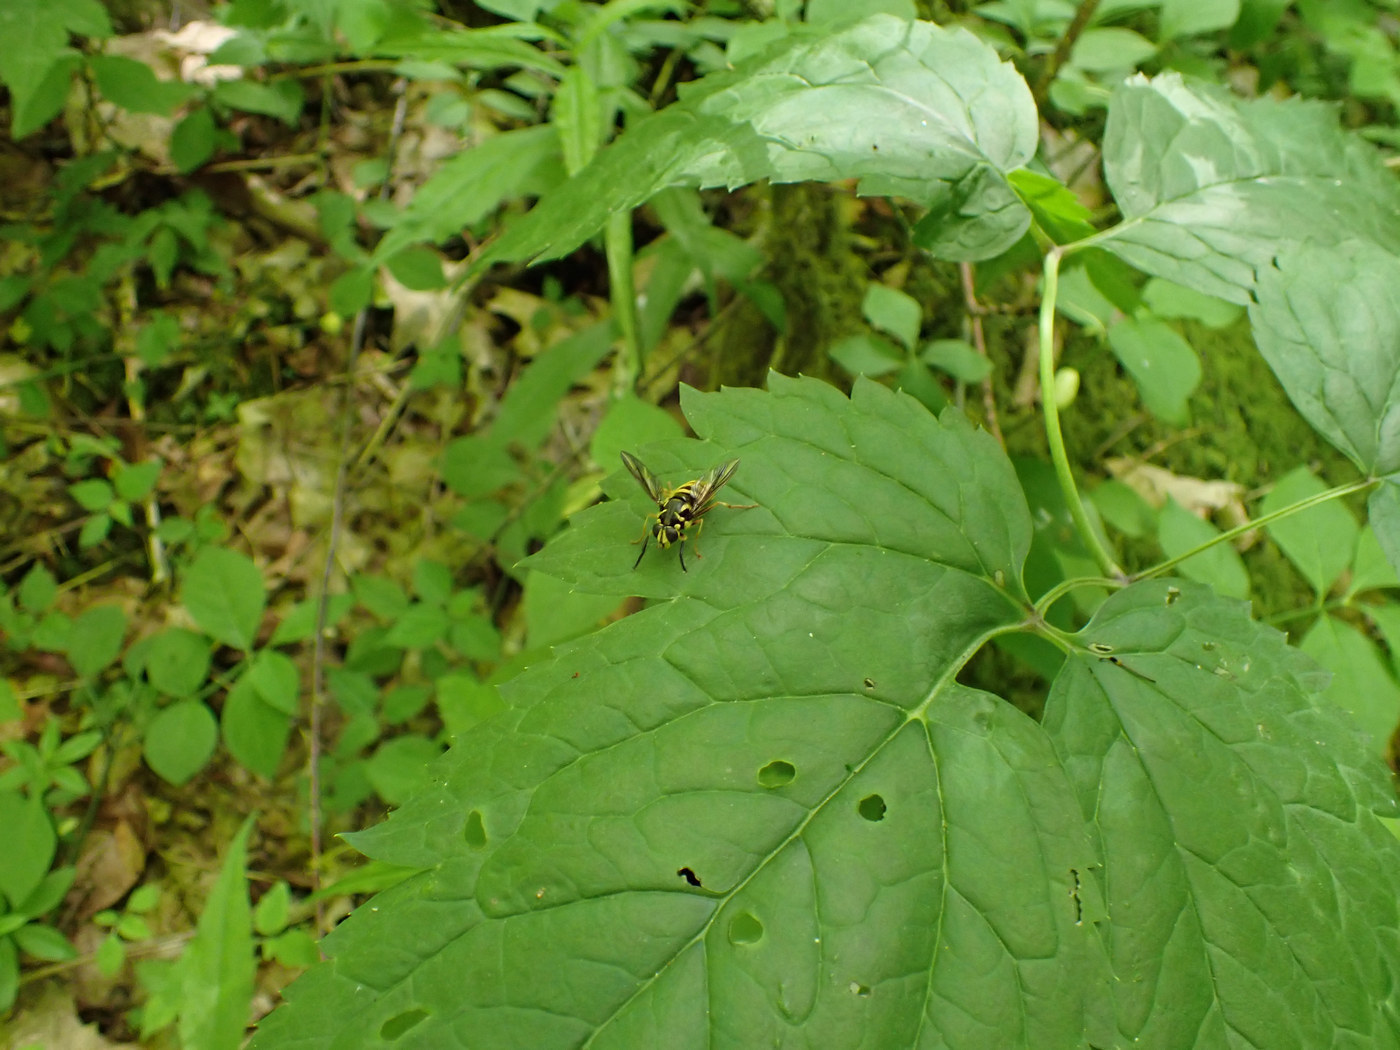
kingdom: Animalia
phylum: Arthropoda
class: Insecta
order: Diptera
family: Syrphidae
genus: Temnostoma
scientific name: Temnostoma excentricum
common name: Black-spotted falsehorn
